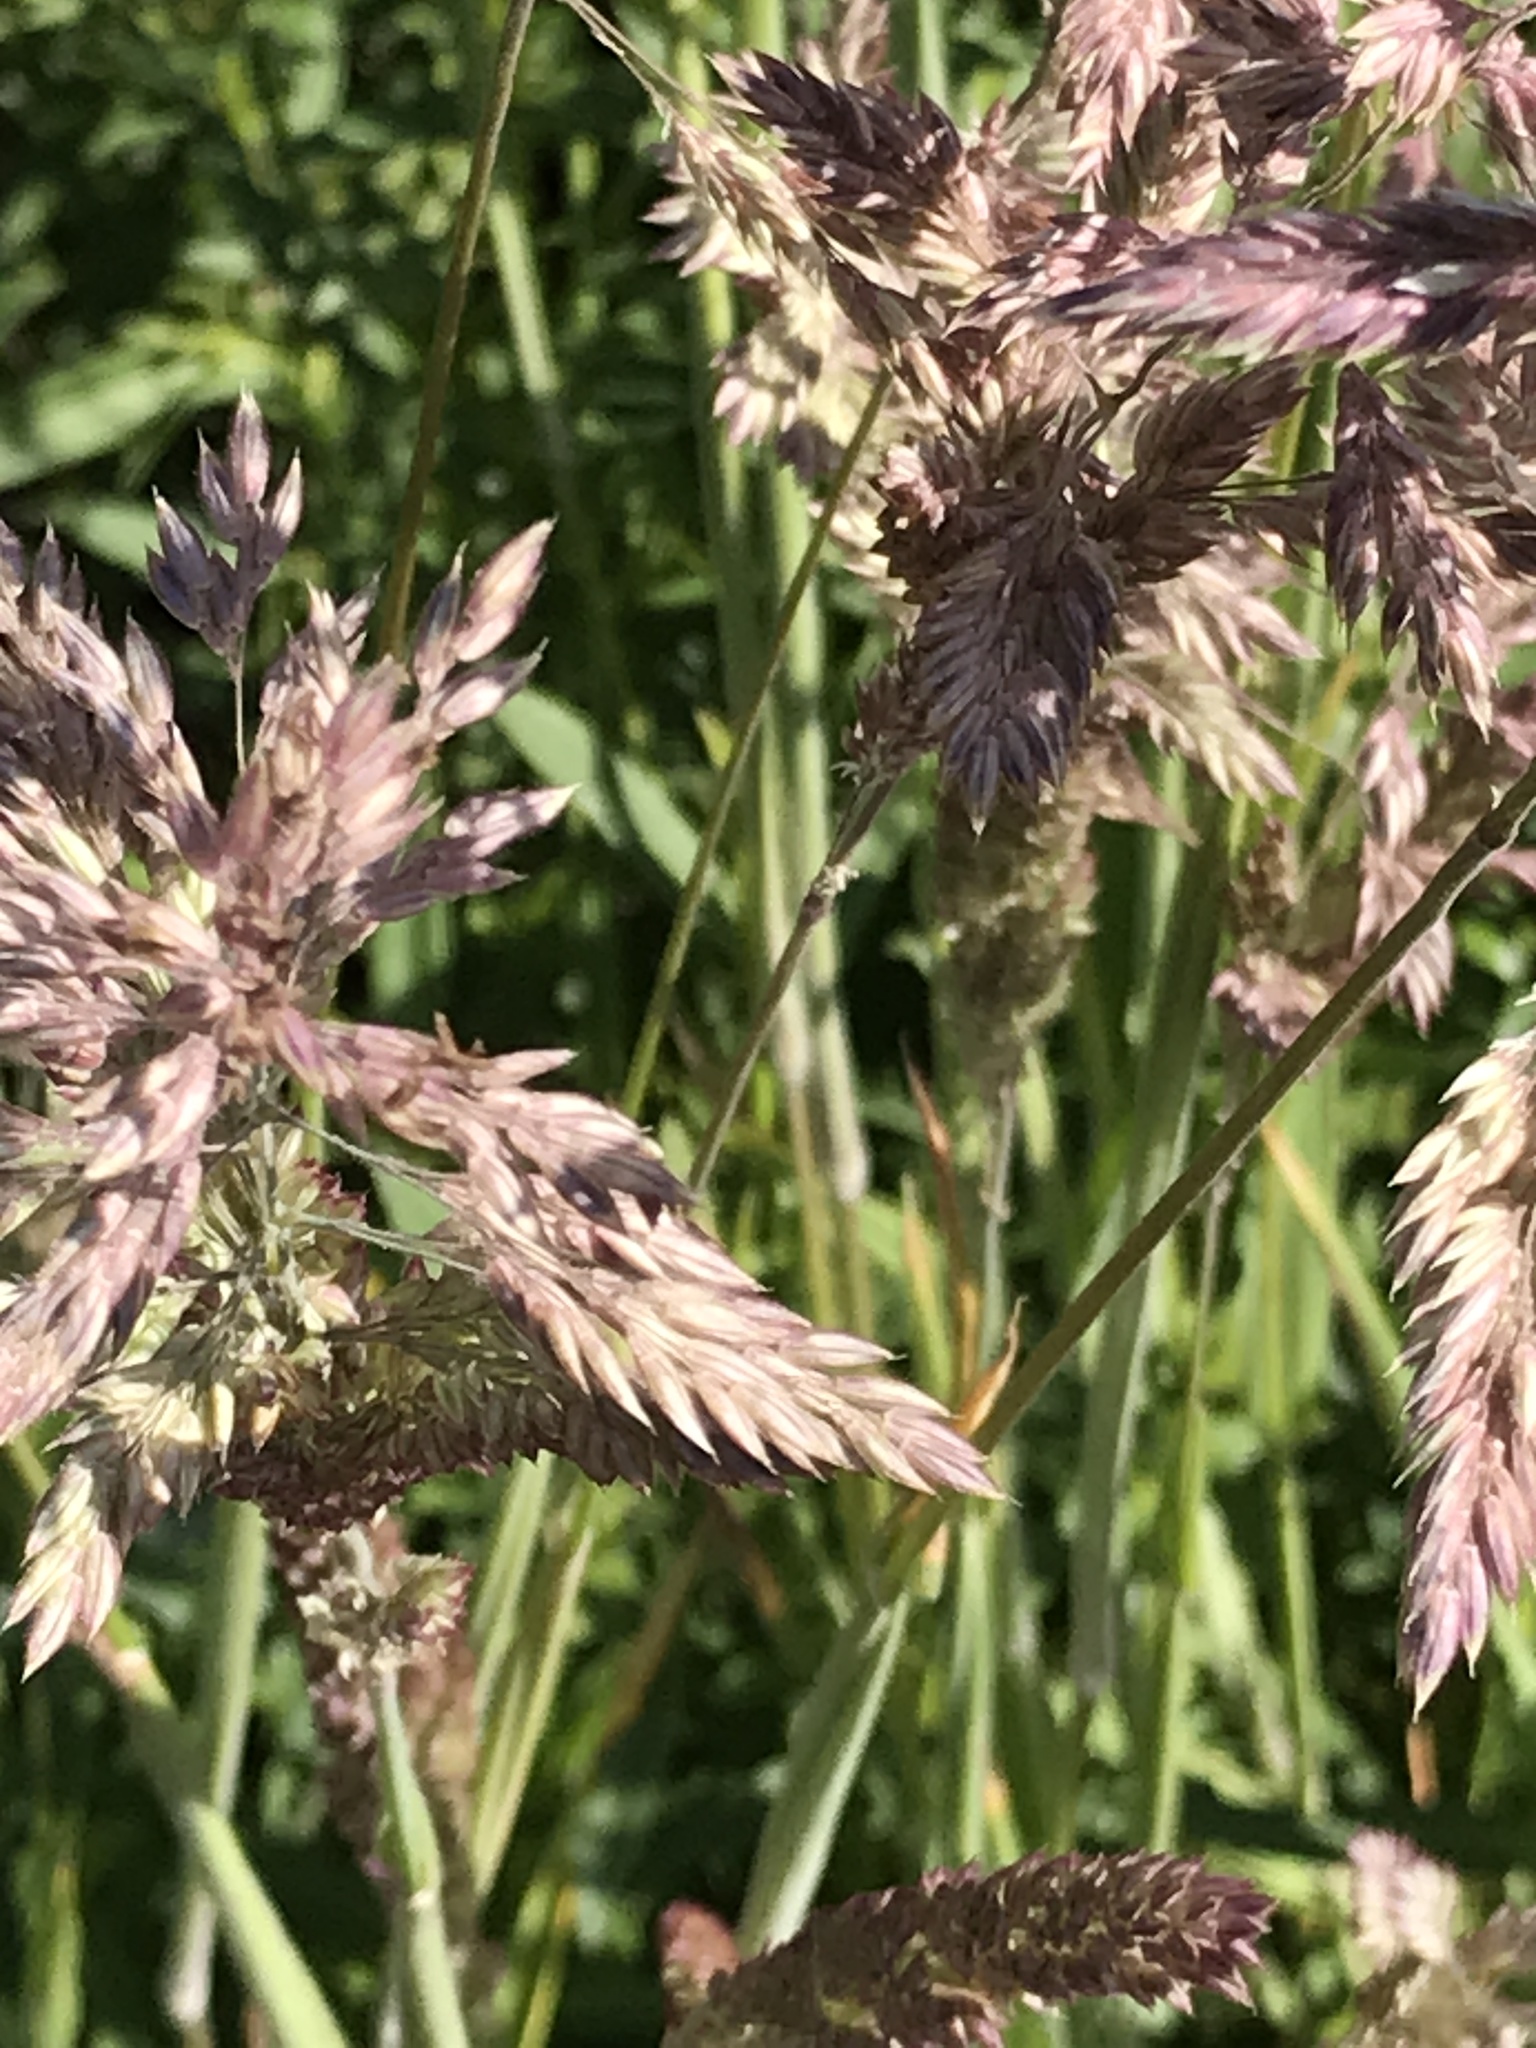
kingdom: Plantae
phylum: Tracheophyta
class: Liliopsida
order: Poales
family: Poaceae
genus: Holcus
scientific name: Holcus lanatus
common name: Yorkshire-fog
